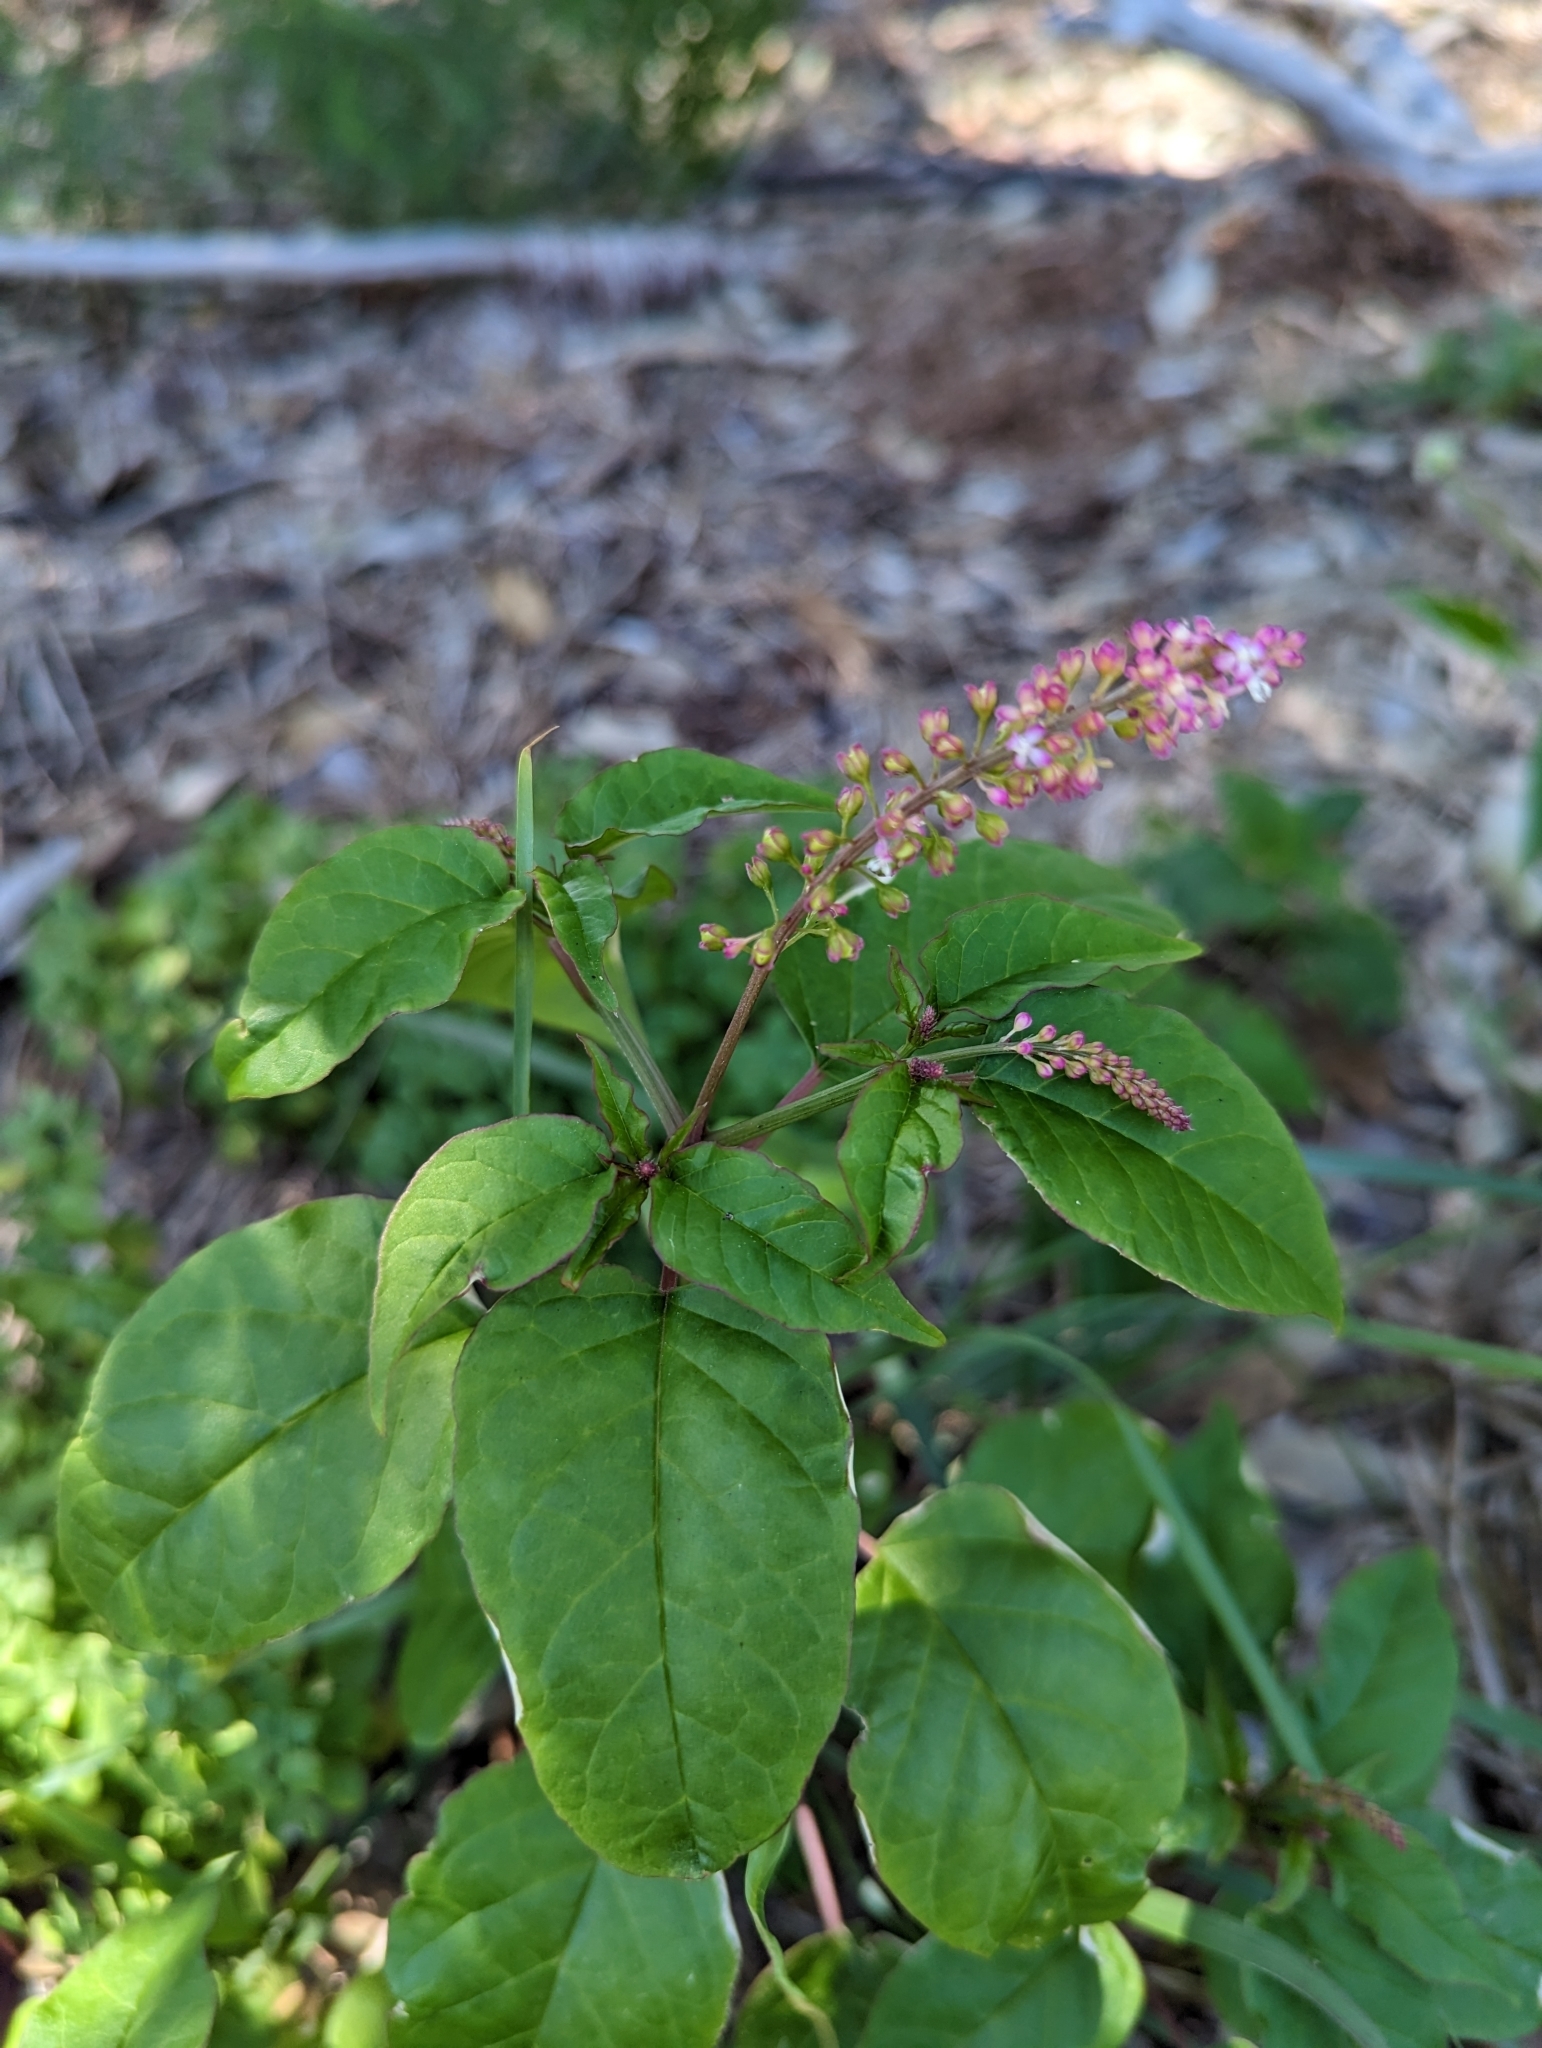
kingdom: Plantae
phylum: Tracheophyta
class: Magnoliopsida
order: Caryophyllales
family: Phytolaccaceae
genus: Rivina
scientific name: Rivina humilis
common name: Rougeplant
